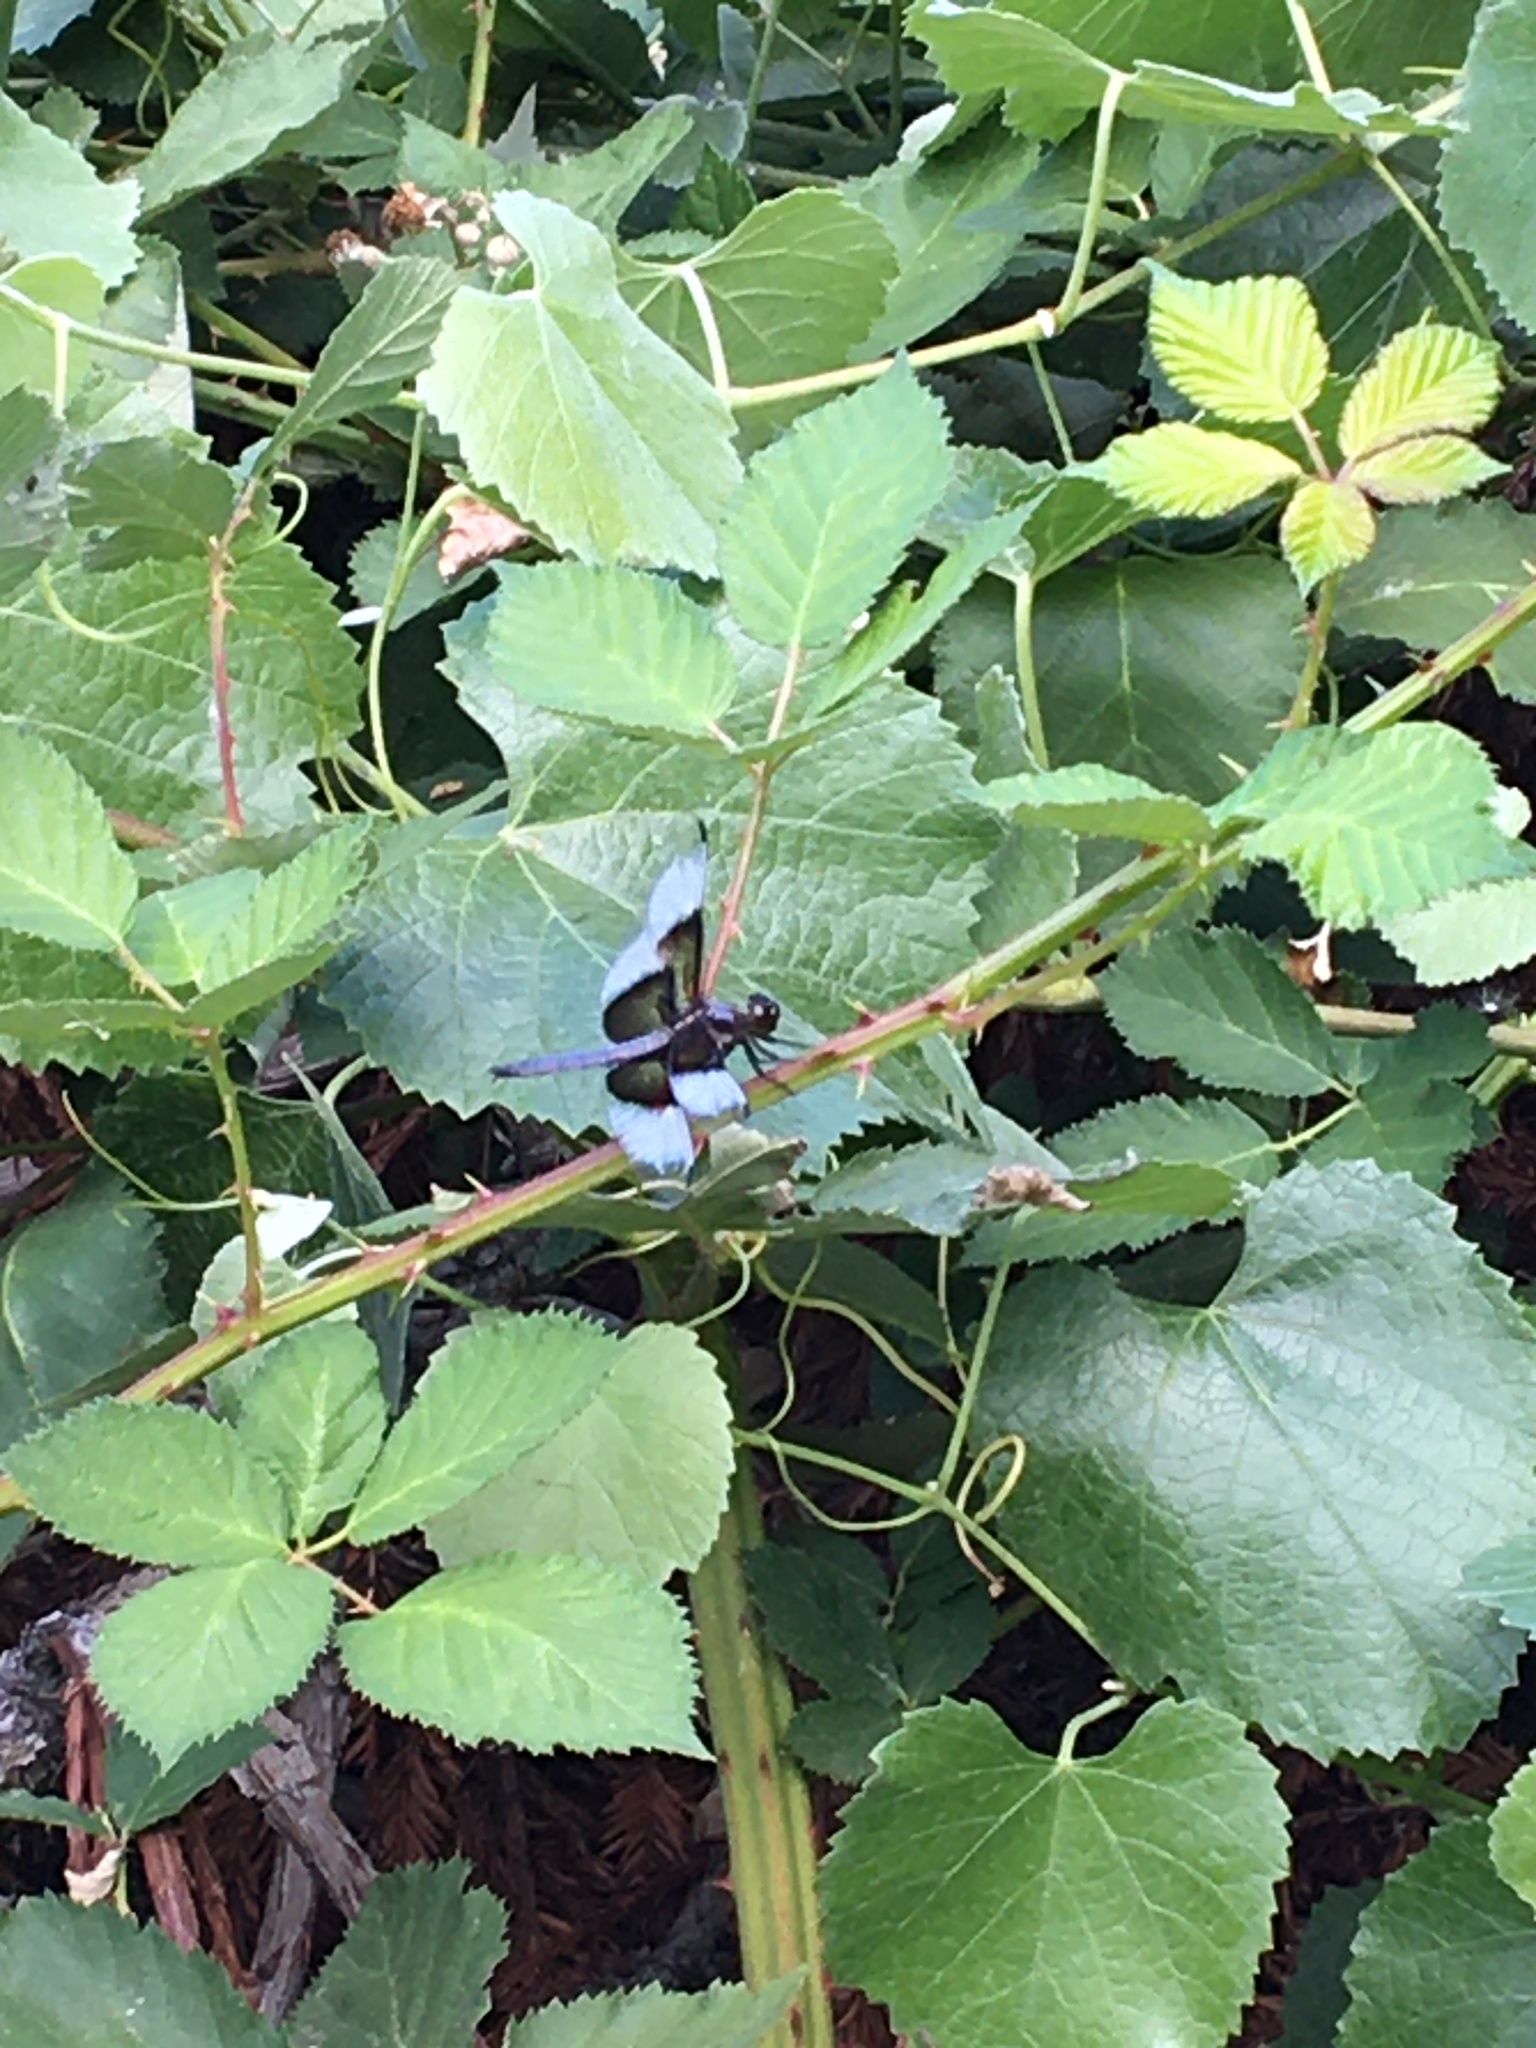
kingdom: Animalia
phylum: Arthropoda
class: Insecta
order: Odonata
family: Libellulidae
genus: Libellula
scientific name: Libellula luctuosa
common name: Widow skimmer
